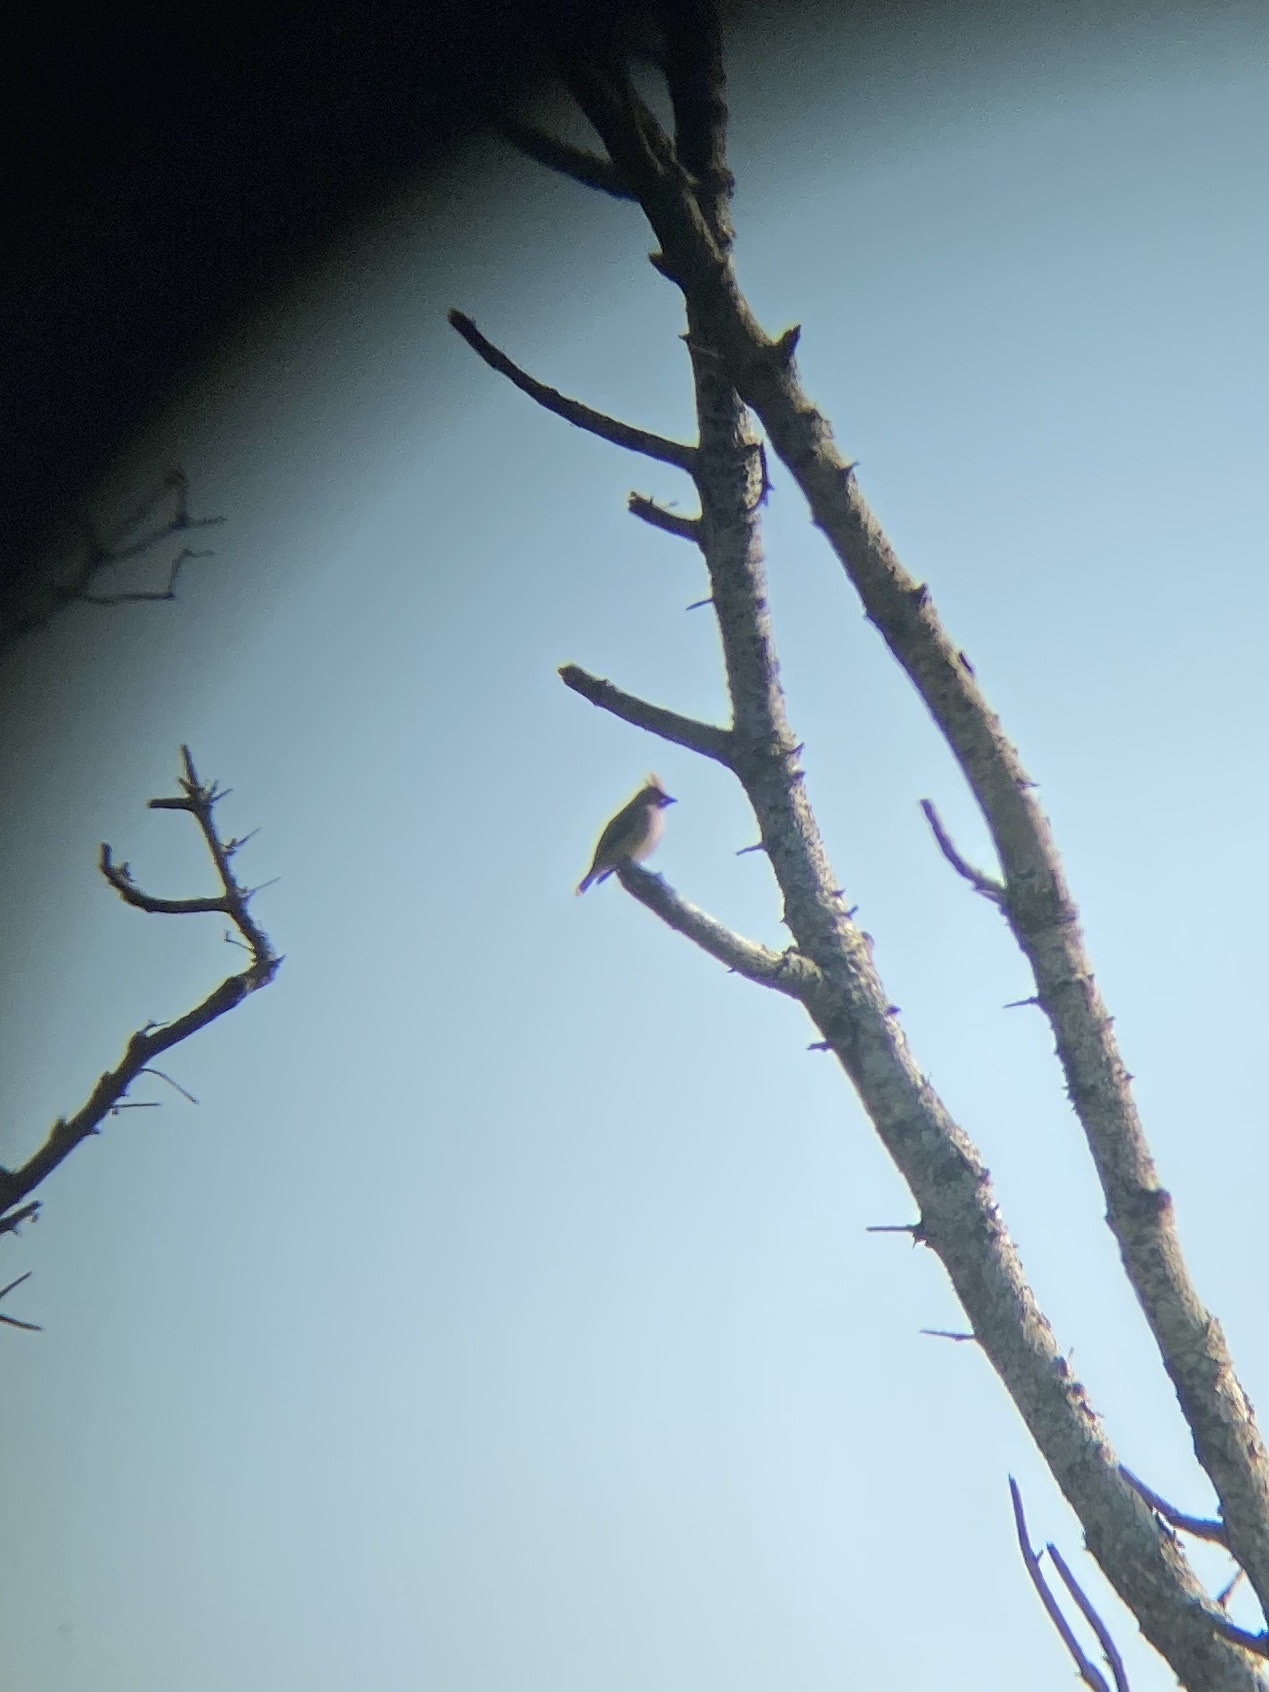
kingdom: Animalia
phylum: Chordata
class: Aves
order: Passeriformes
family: Bombycillidae
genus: Bombycilla
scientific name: Bombycilla cedrorum
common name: Cedar waxwing
